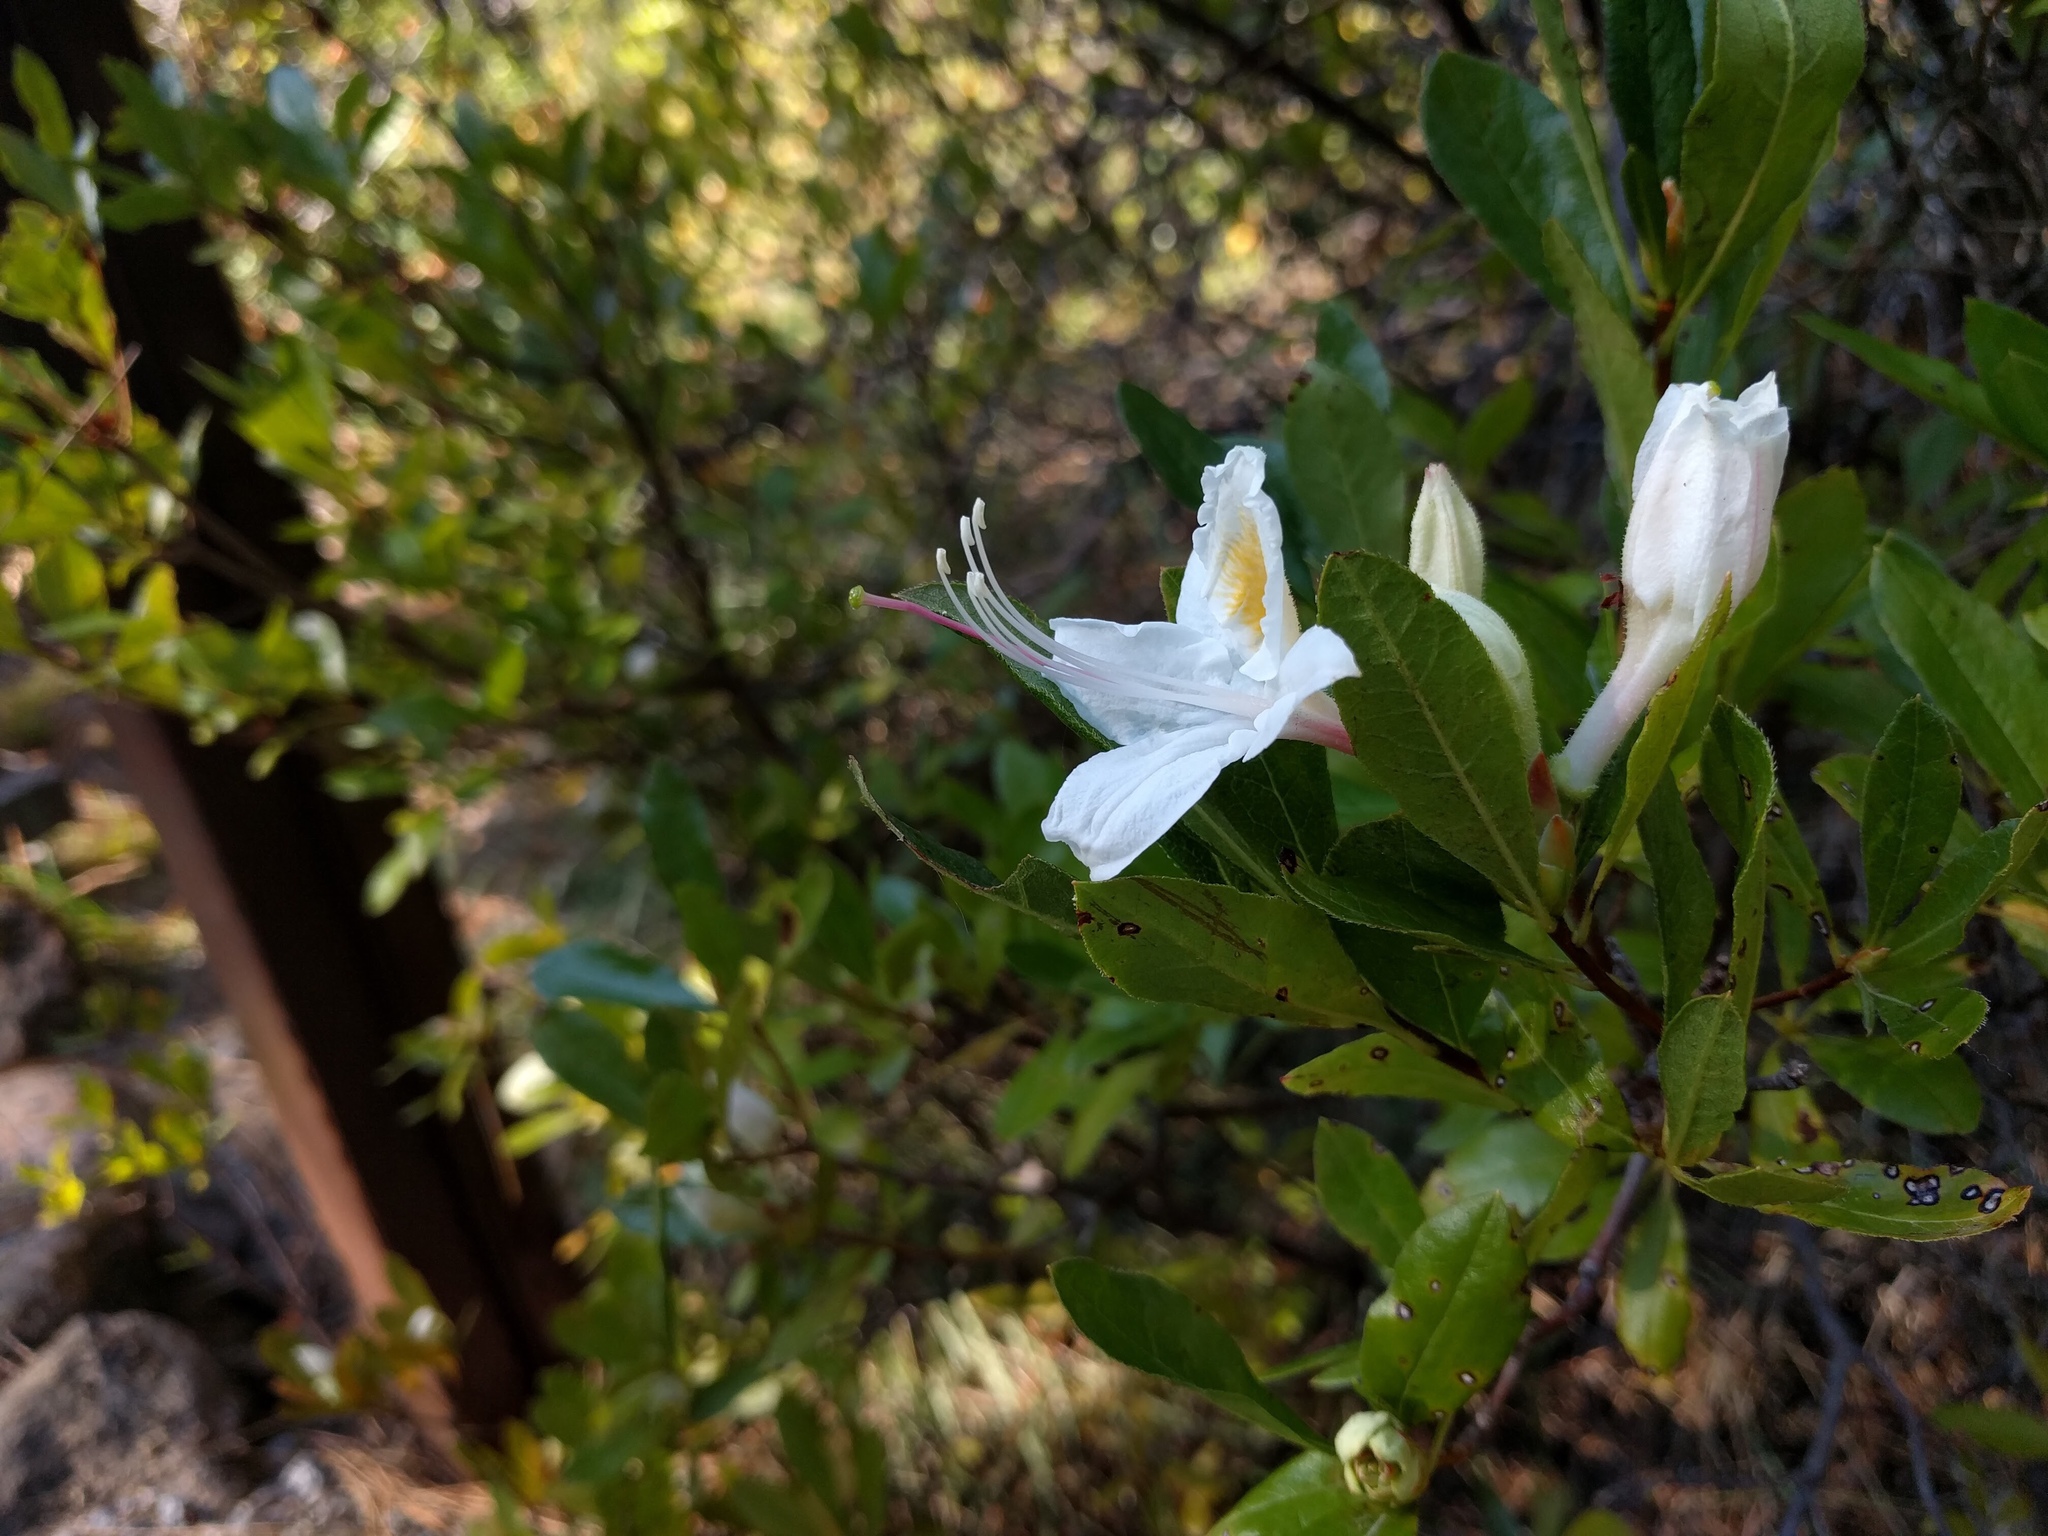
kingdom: Plantae
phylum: Tracheophyta
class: Magnoliopsida
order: Ericales
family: Ericaceae
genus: Rhododendron
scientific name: Rhododendron occidentale
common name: Western azalea
